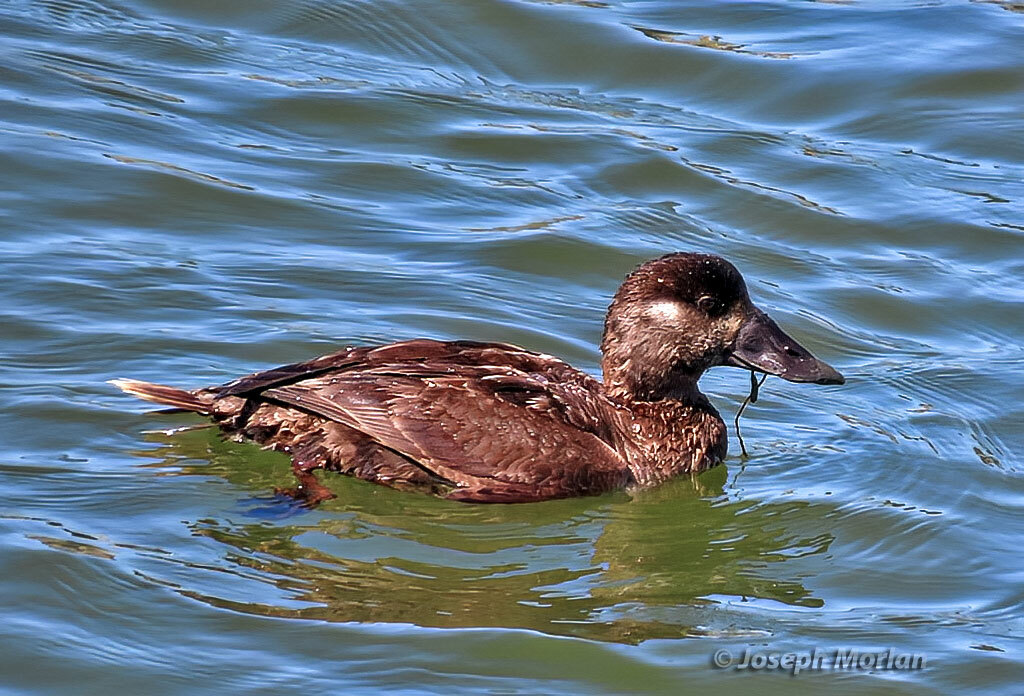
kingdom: Animalia
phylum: Chordata
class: Aves
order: Anseriformes
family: Anatidae
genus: Melanitta
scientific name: Melanitta perspicillata
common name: Surf scoter
